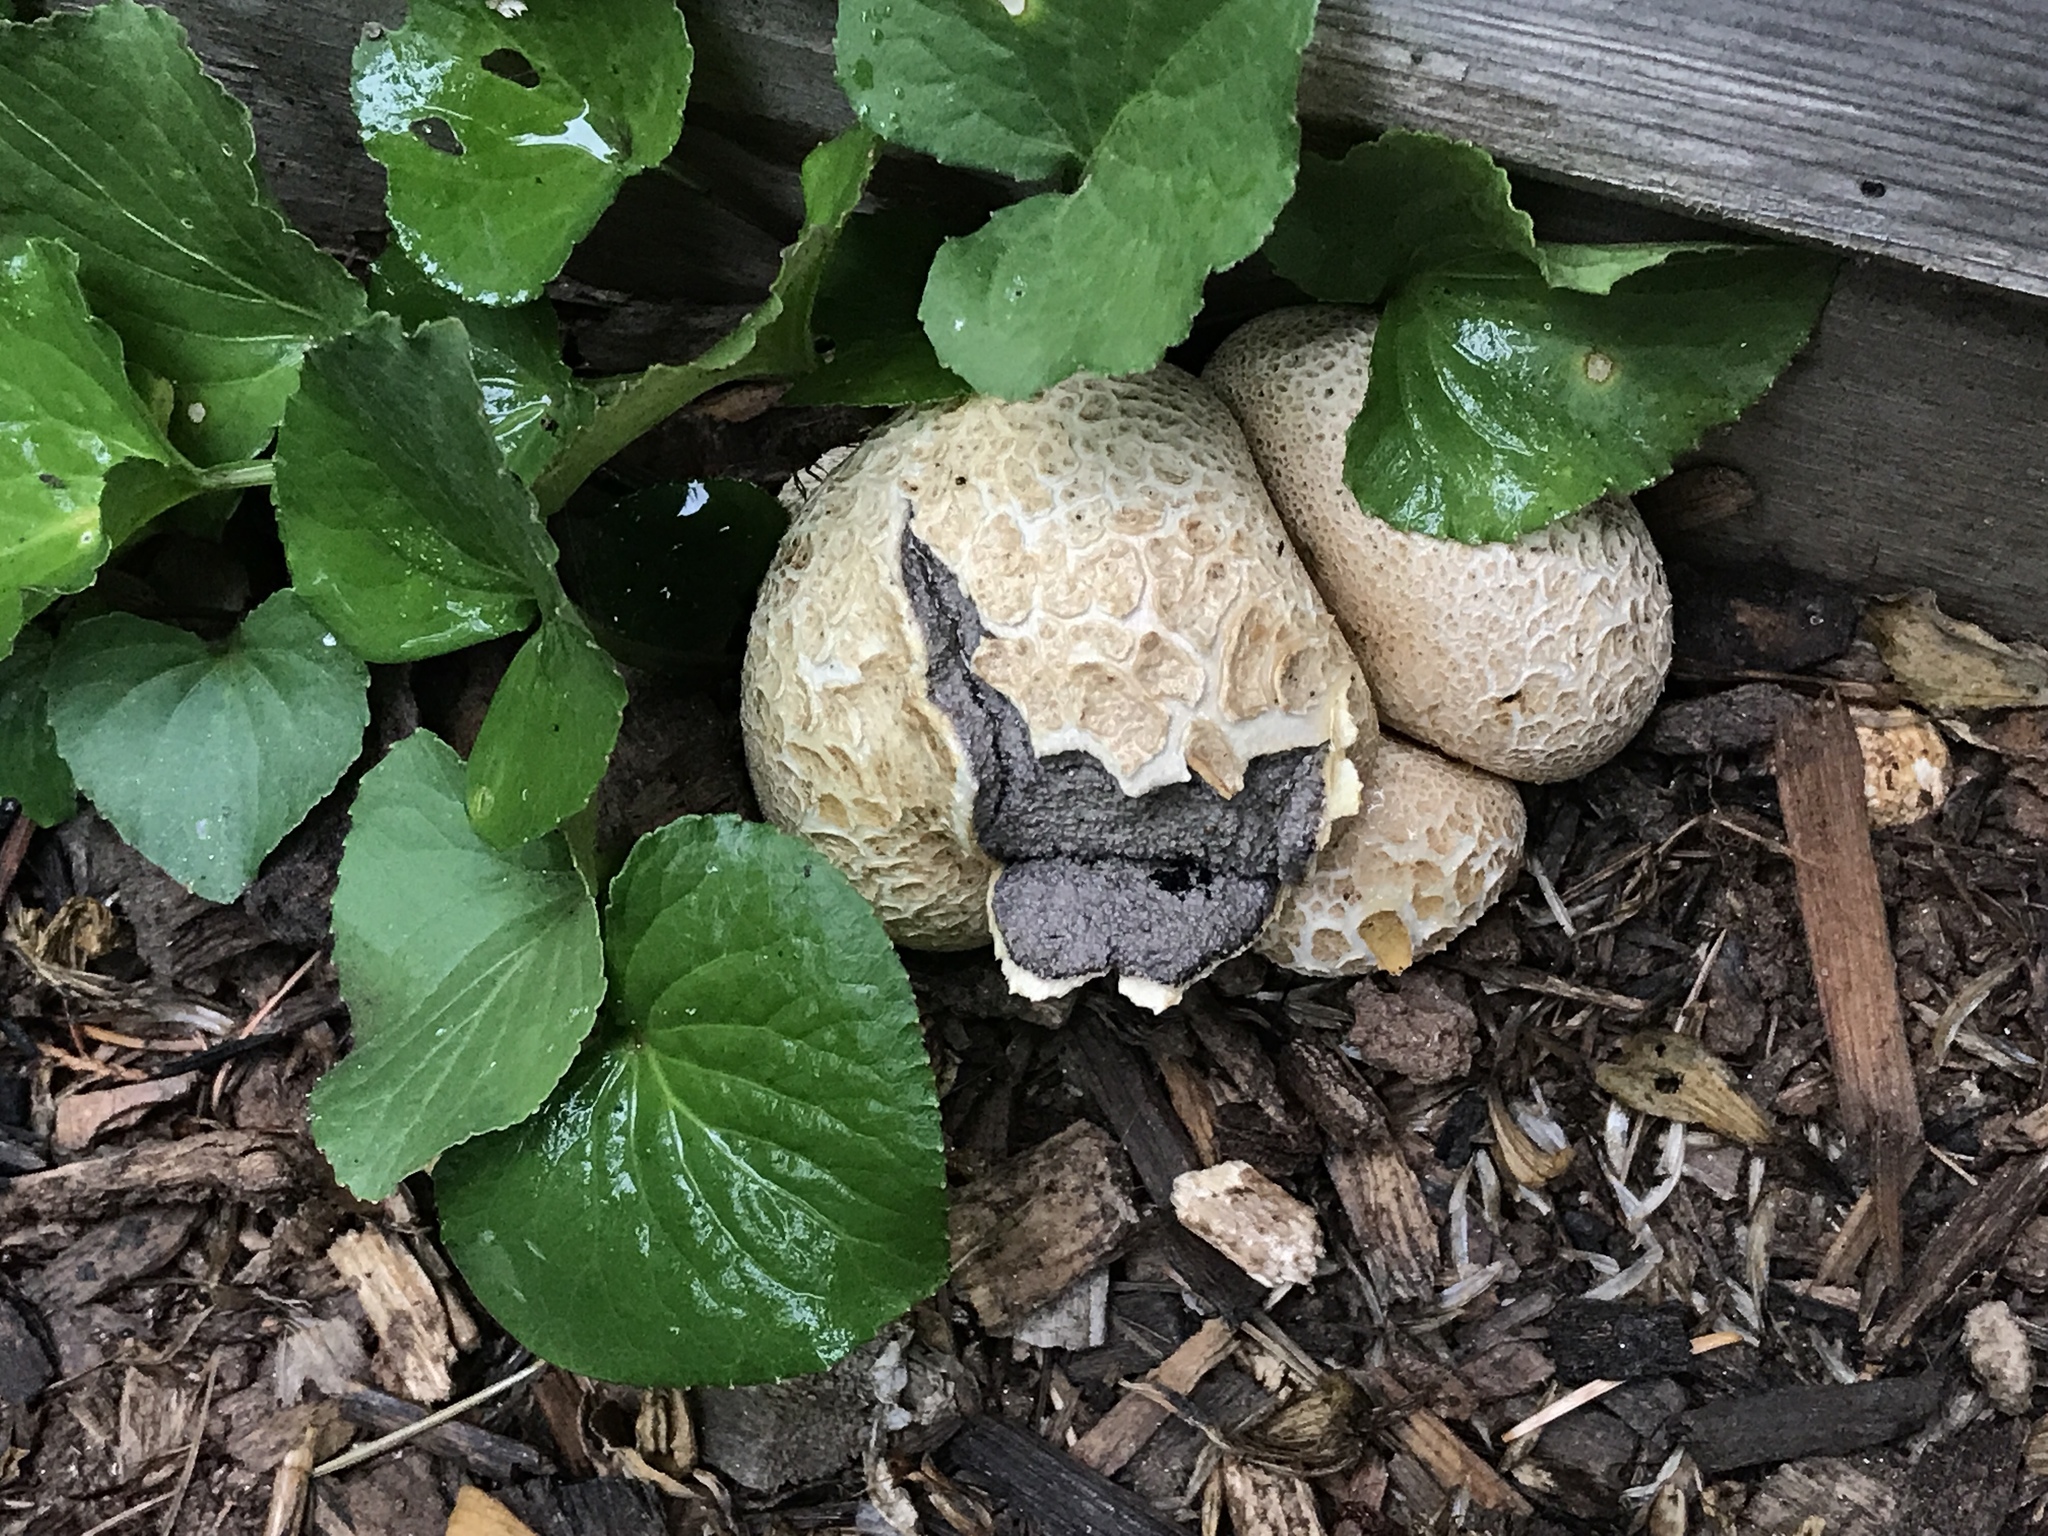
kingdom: Fungi
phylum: Basidiomycota
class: Agaricomycetes
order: Boletales
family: Sclerodermataceae
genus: Scleroderma
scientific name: Scleroderma citrinum
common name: Common earthball
